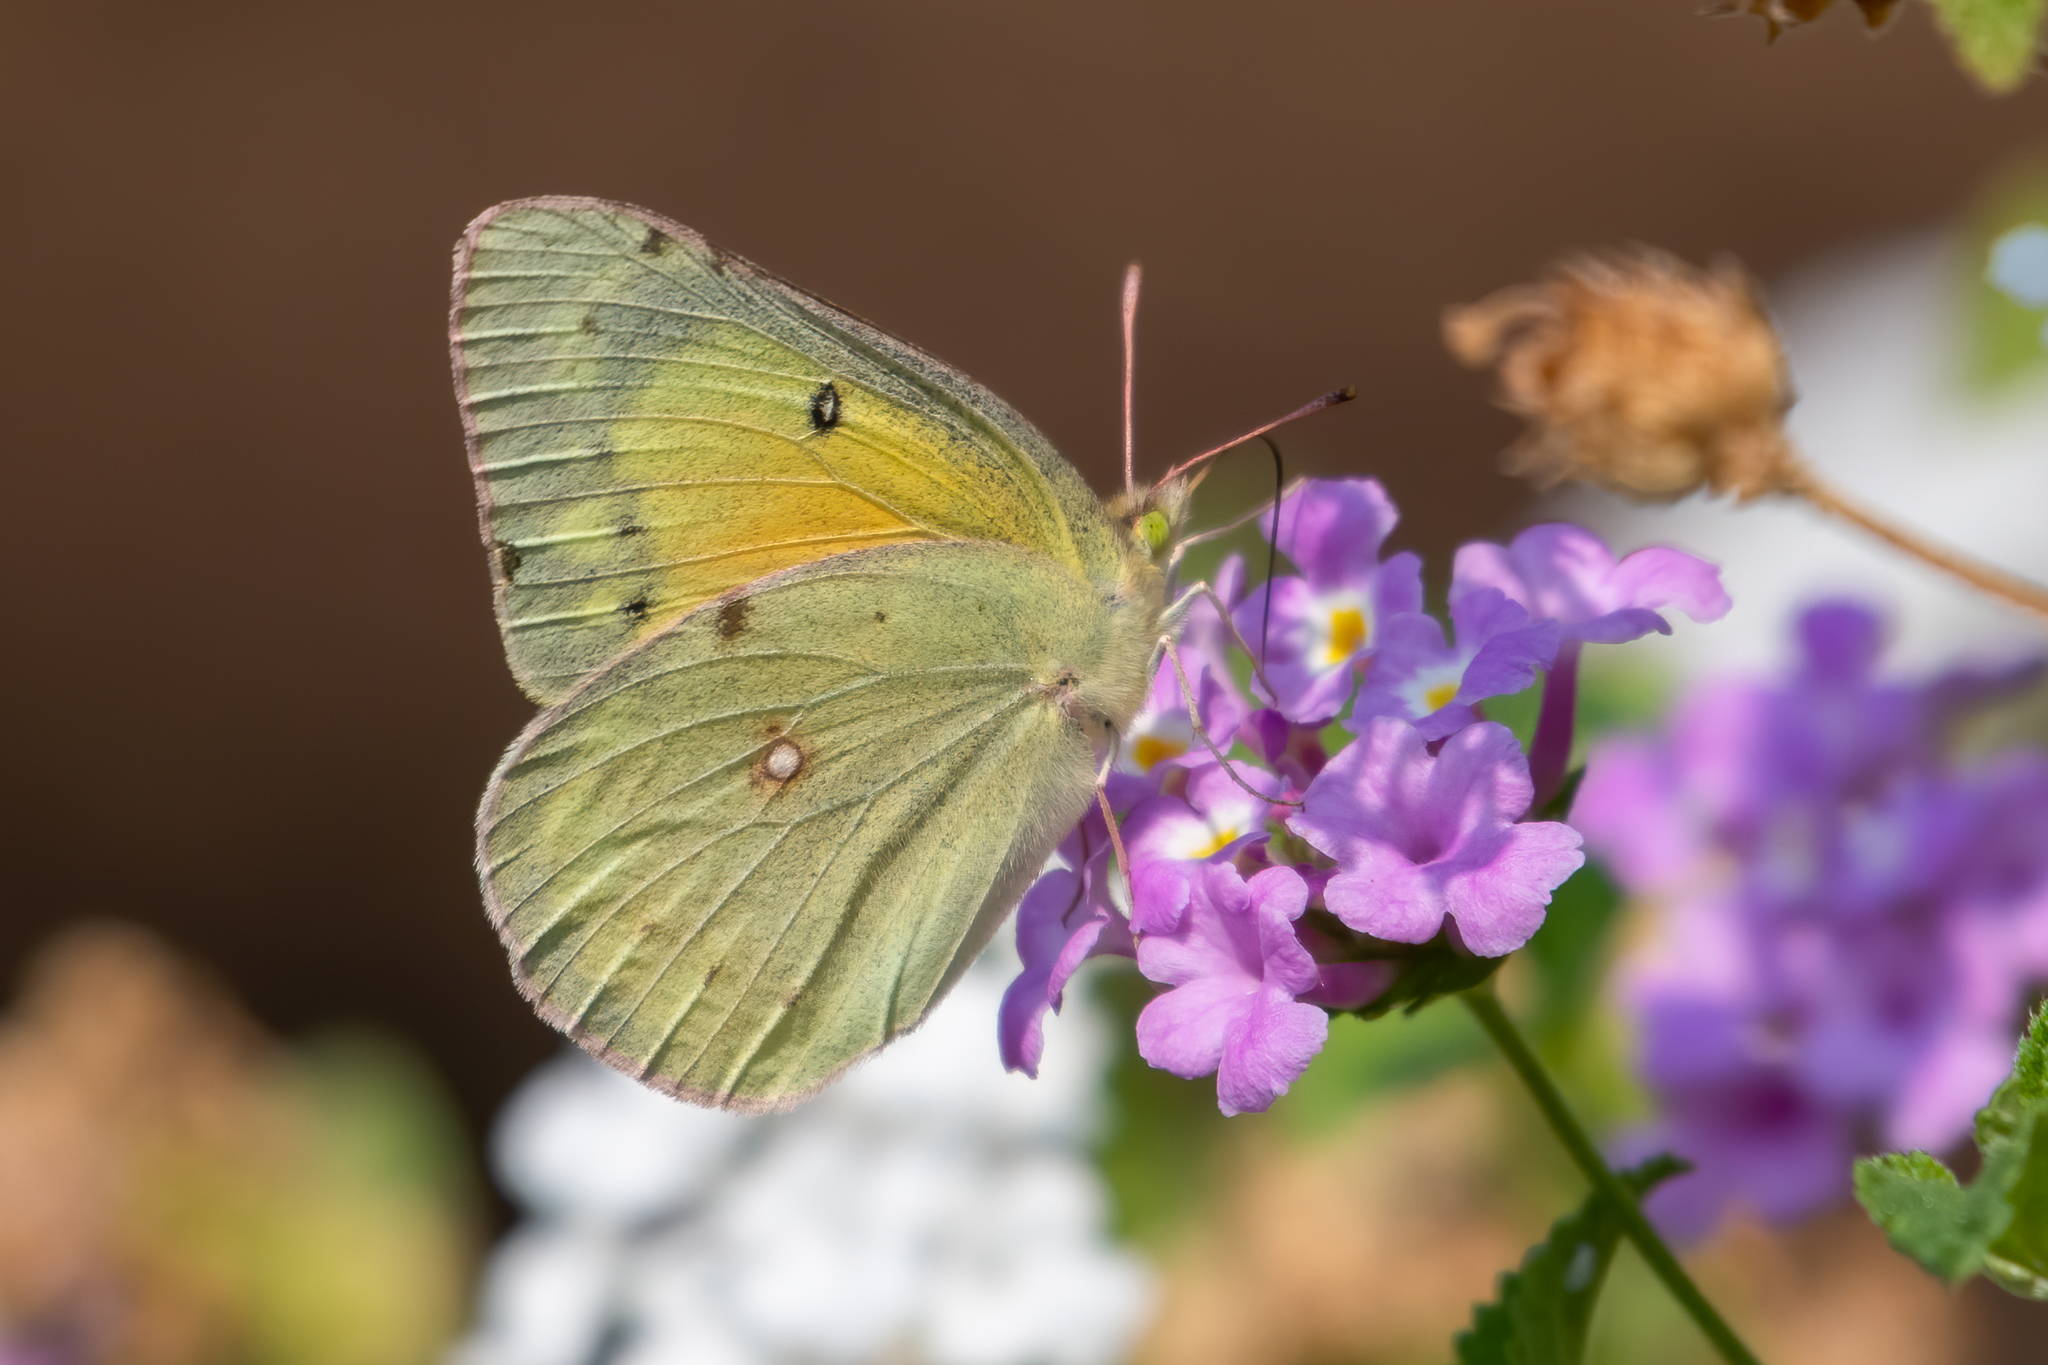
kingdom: Animalia
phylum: Arthropoda
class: Insecta
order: Lepidoptera
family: Pieridae
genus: Colias
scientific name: Colias eurytheme
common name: Alfalfa butterfly
